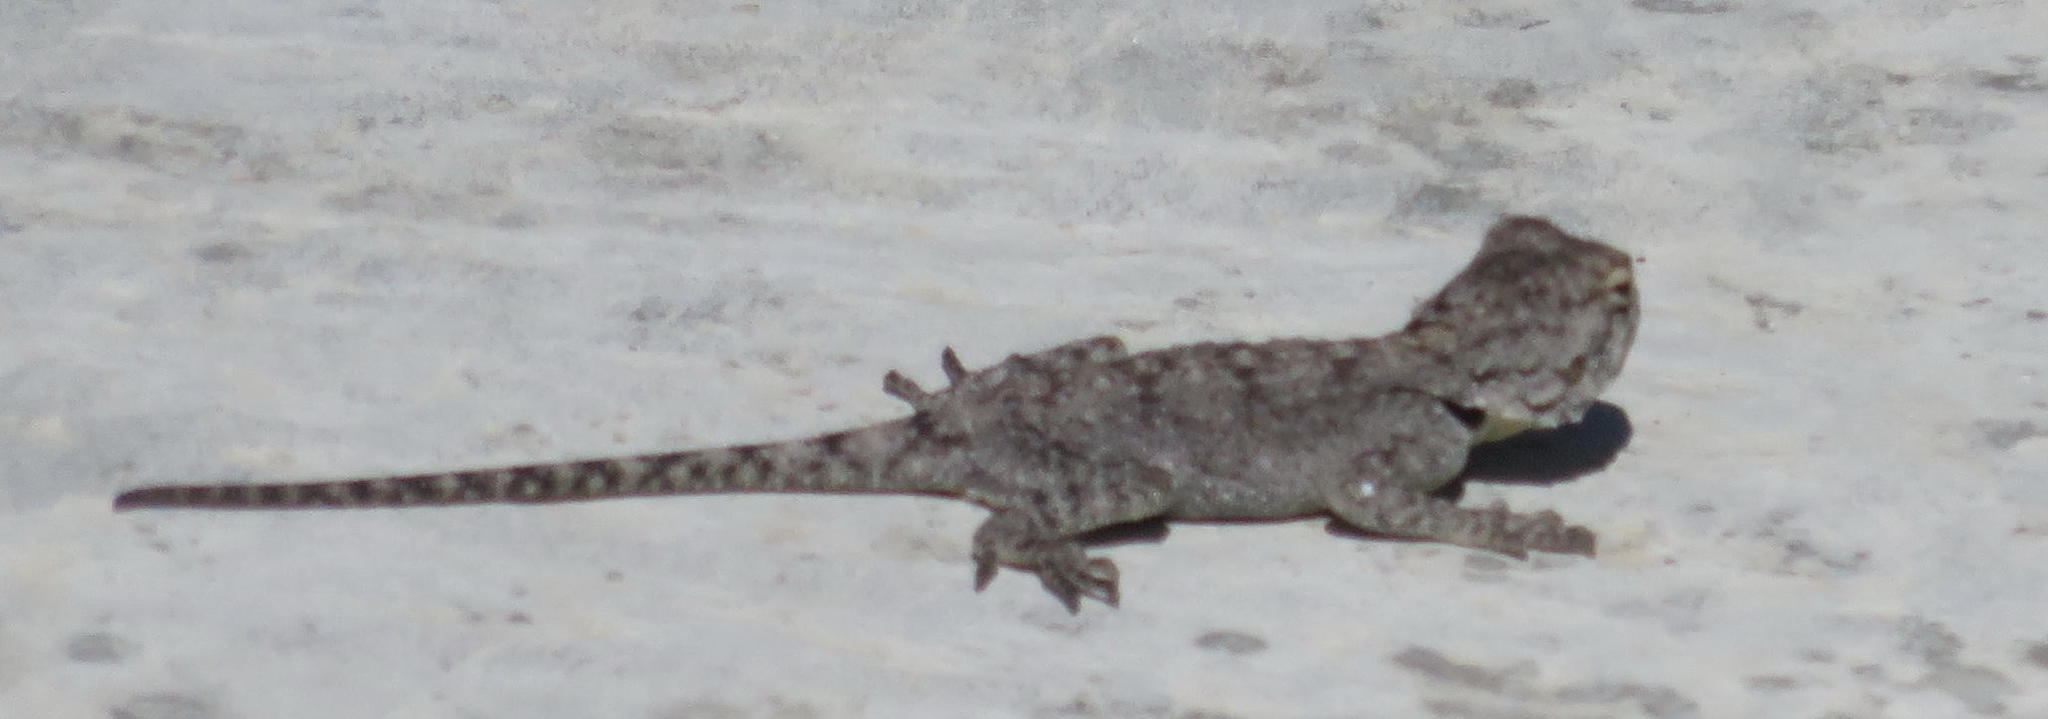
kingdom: Animalia
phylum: Chordata
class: Squamata
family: Agamidae
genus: Agama
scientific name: Agama atra
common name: Southern african rock agama
